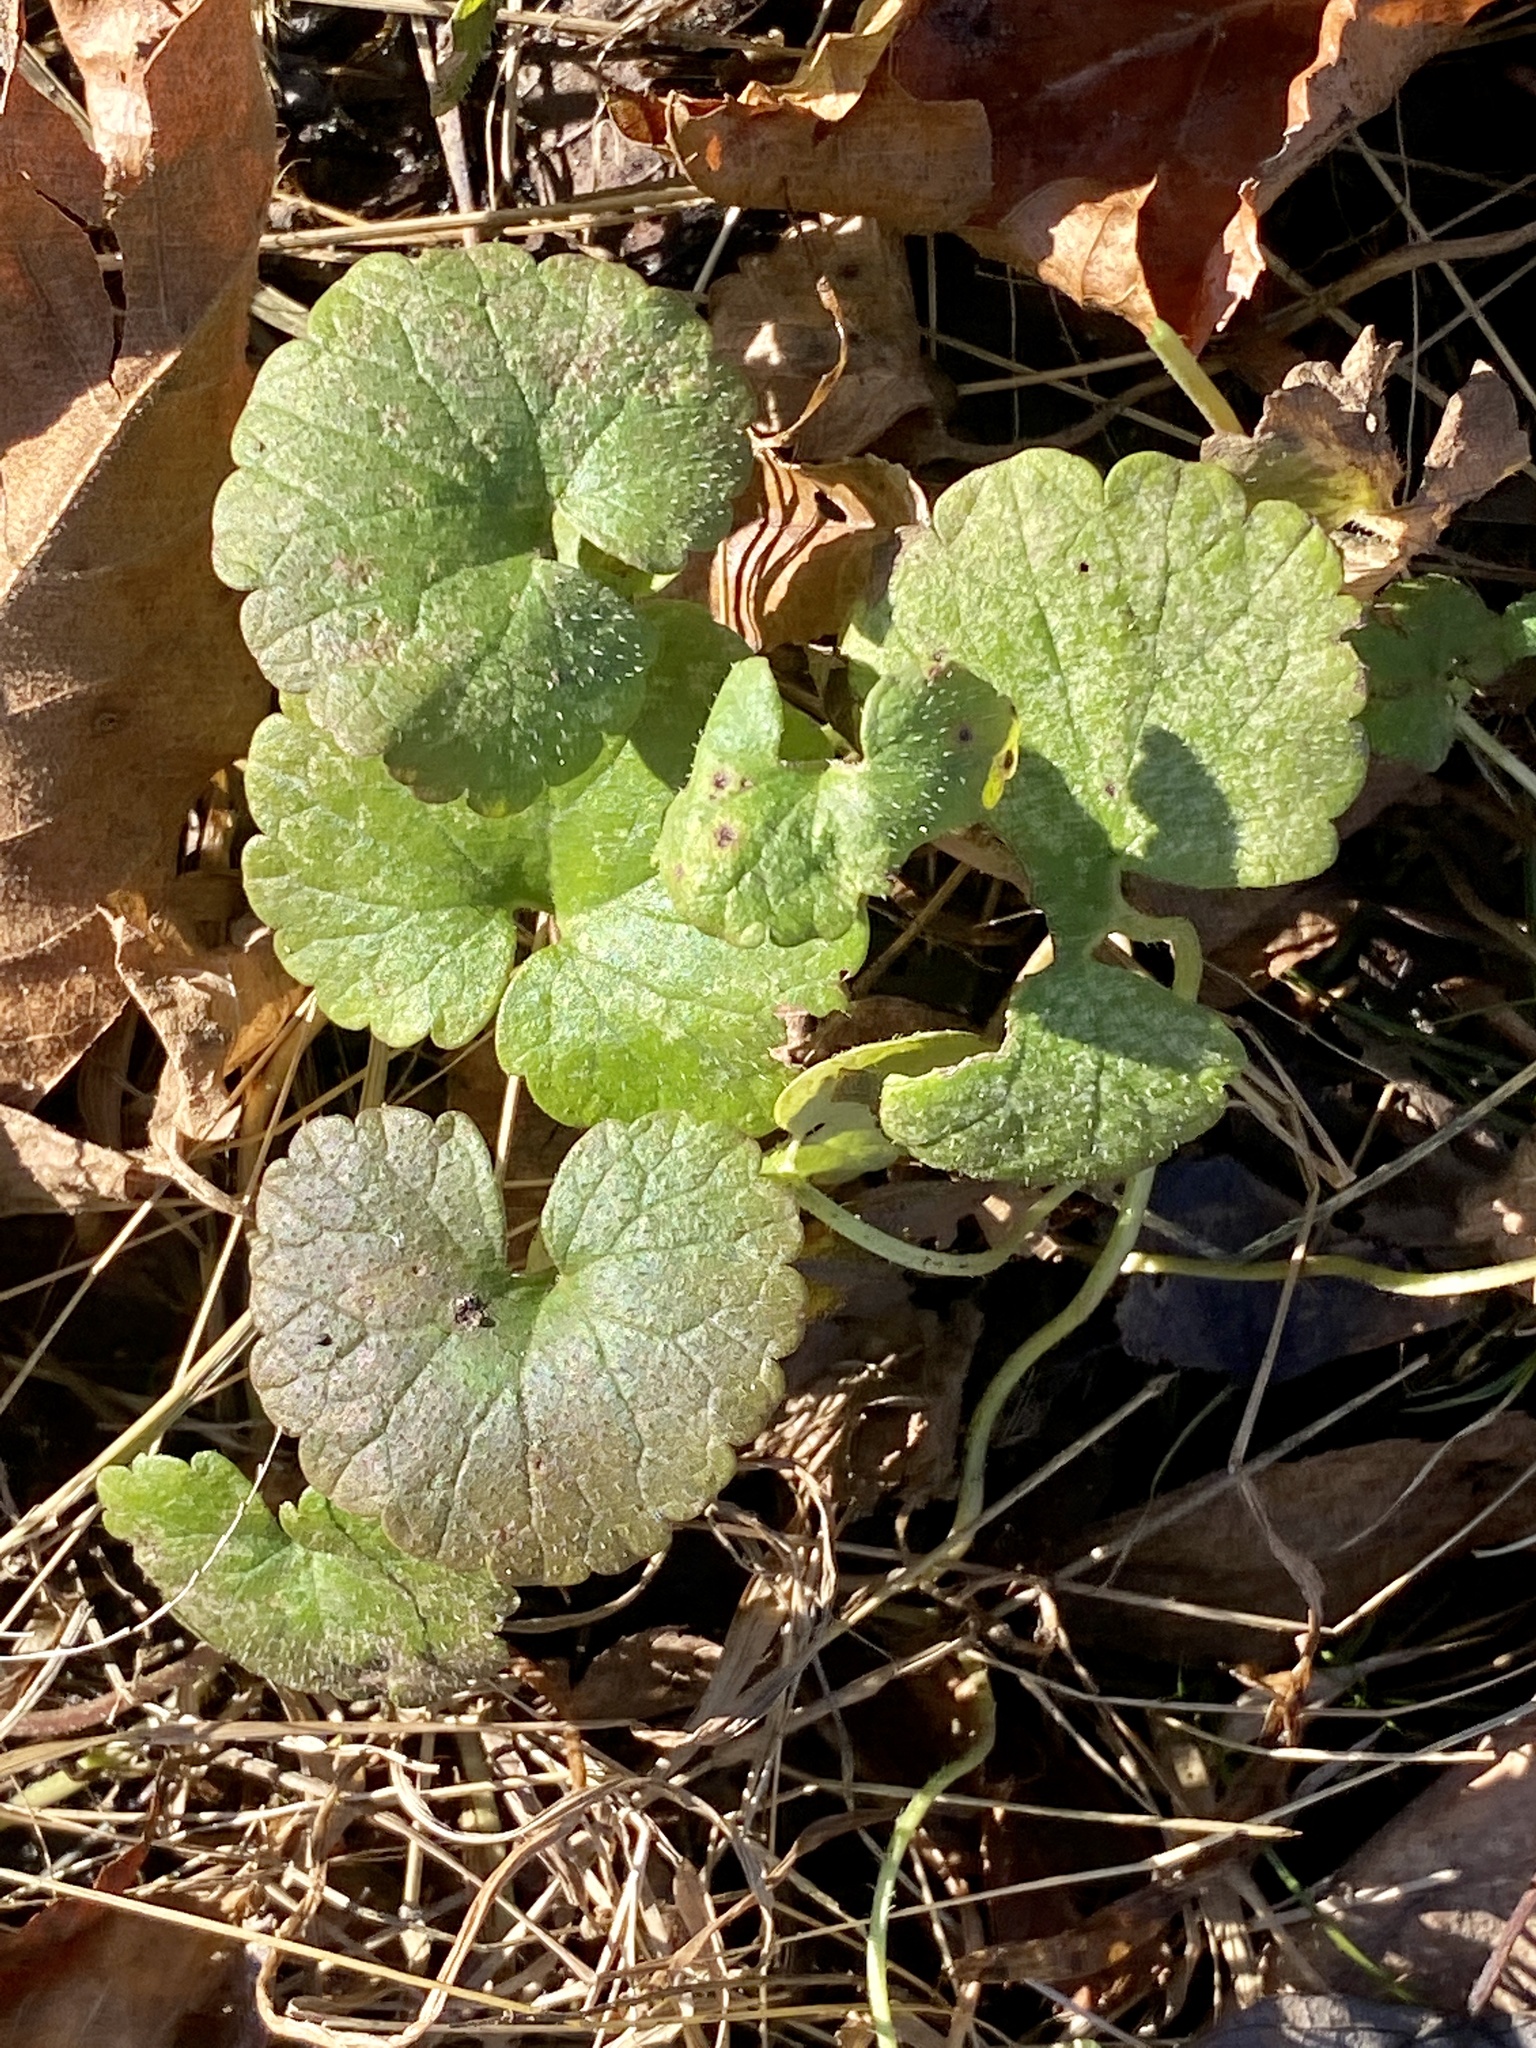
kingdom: Plantae
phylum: Tracheophyta
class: Magnoliopsida
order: Lamiales
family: Lamiaceae
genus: Glechoma
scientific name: Glechoma hederacea
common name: Ground ivy
